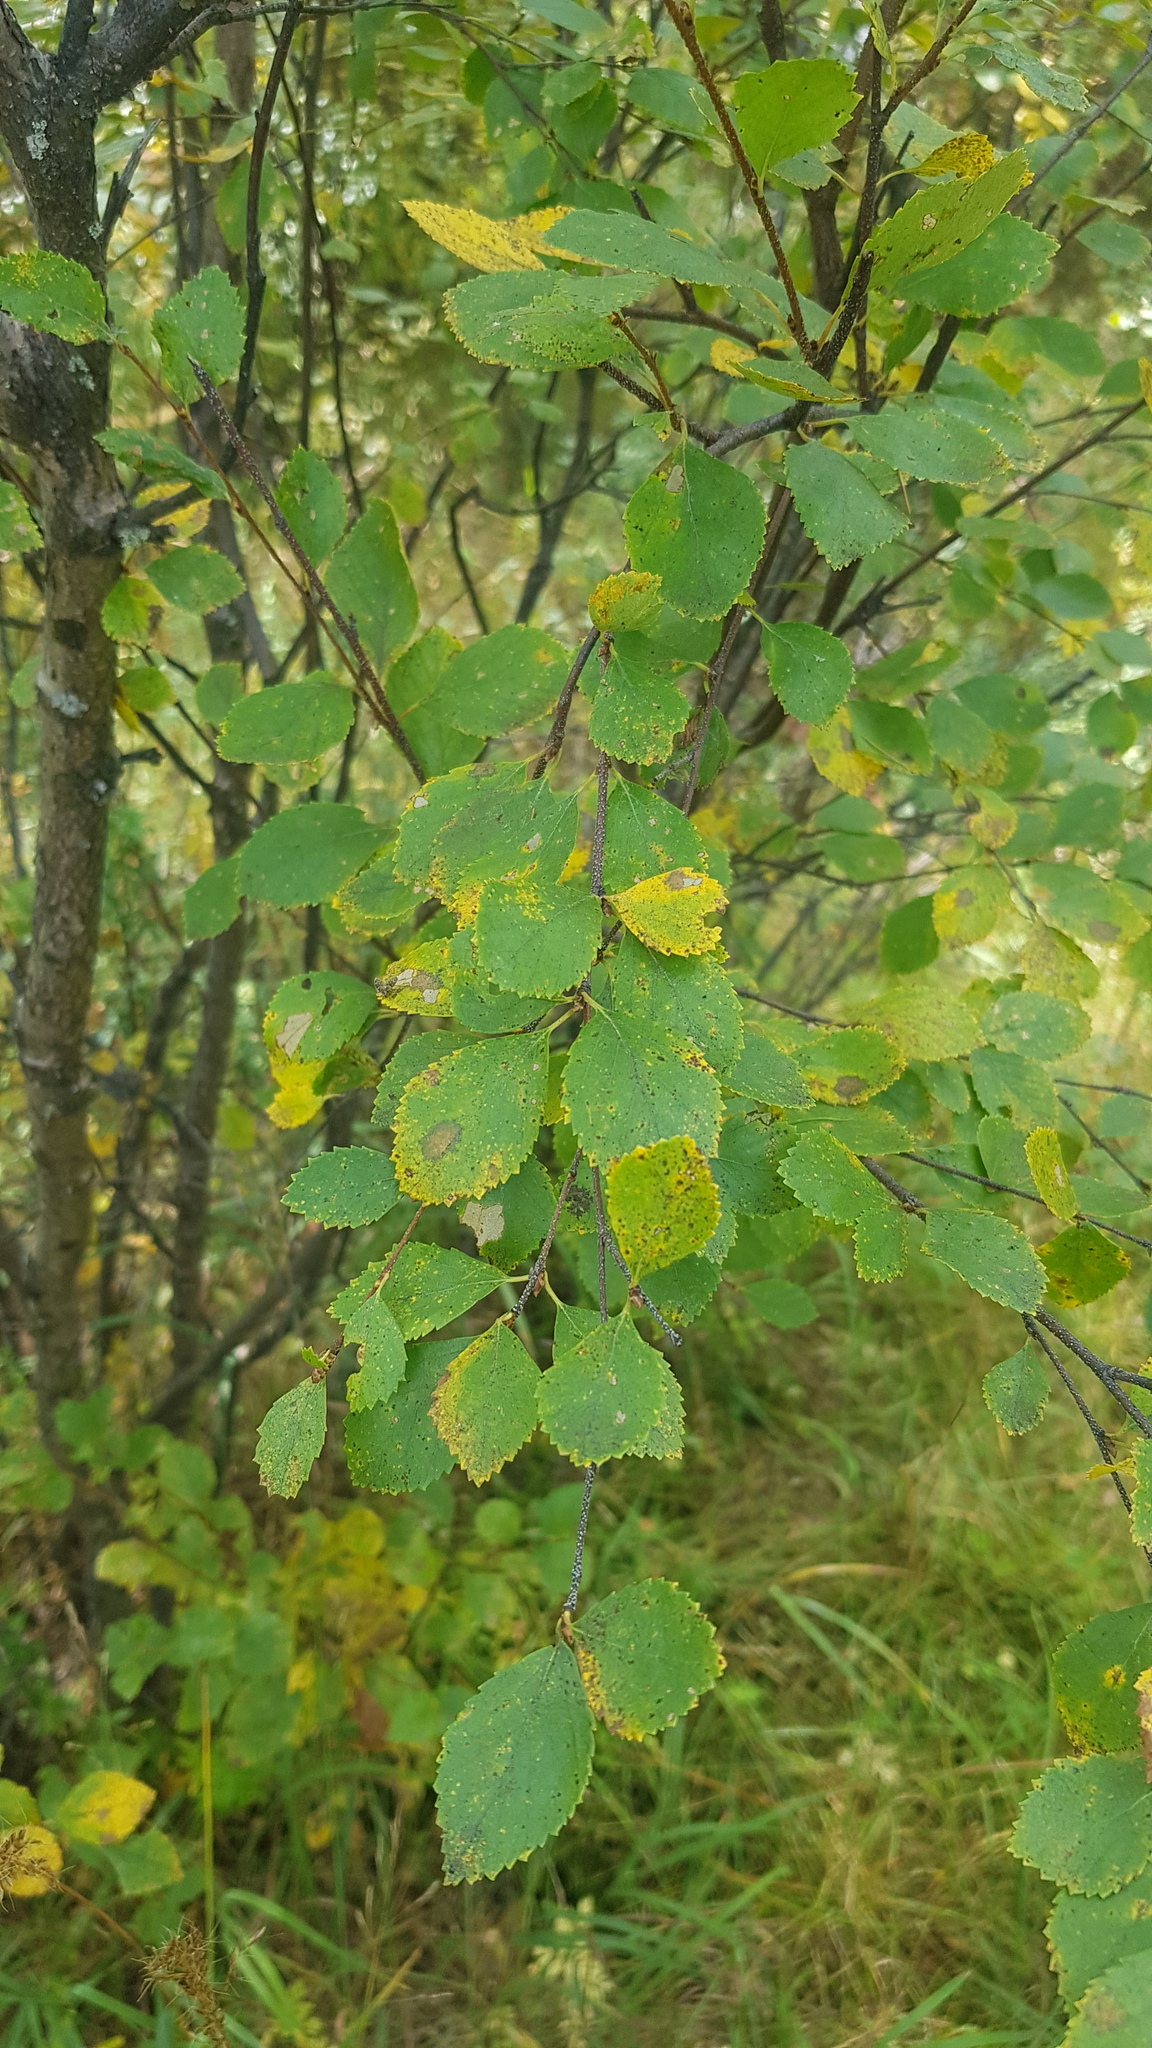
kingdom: Plantae
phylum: Tracheophyta
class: Magnoliopsida
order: Fagales
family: Betulaceae
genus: Betula
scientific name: Betula humilis
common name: Shrubby birch
